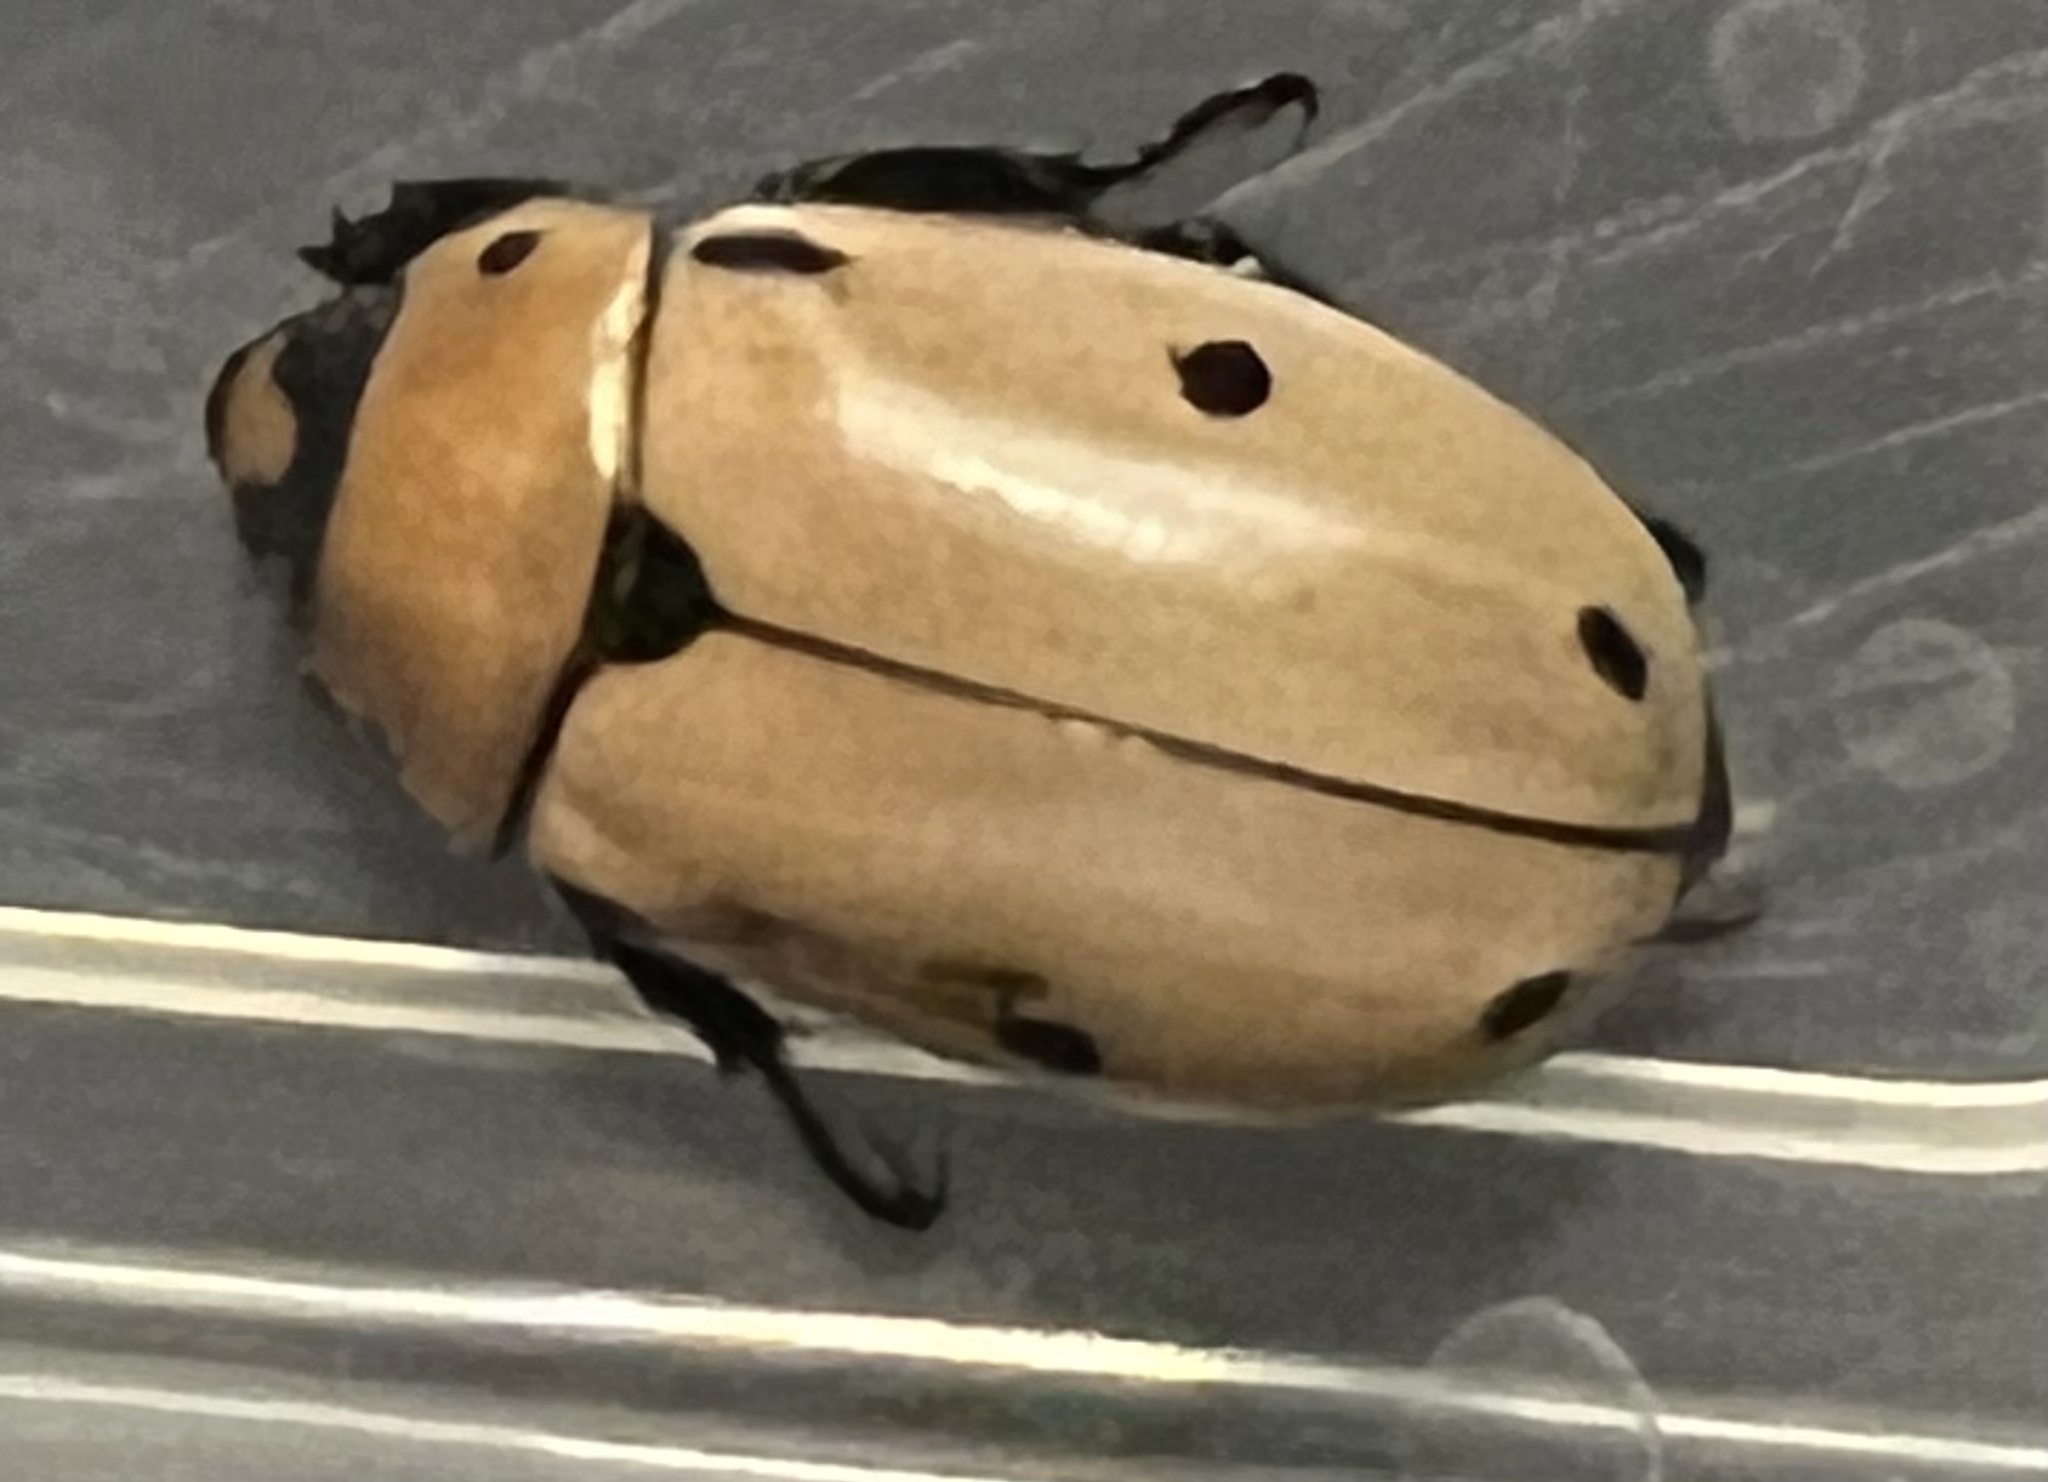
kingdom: Animalia
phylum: Arthropoda
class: Insecta
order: Coleoptera
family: Scarabaeidae
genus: Pelidnota
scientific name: Pelidnota punctata
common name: Grapevine beetle
